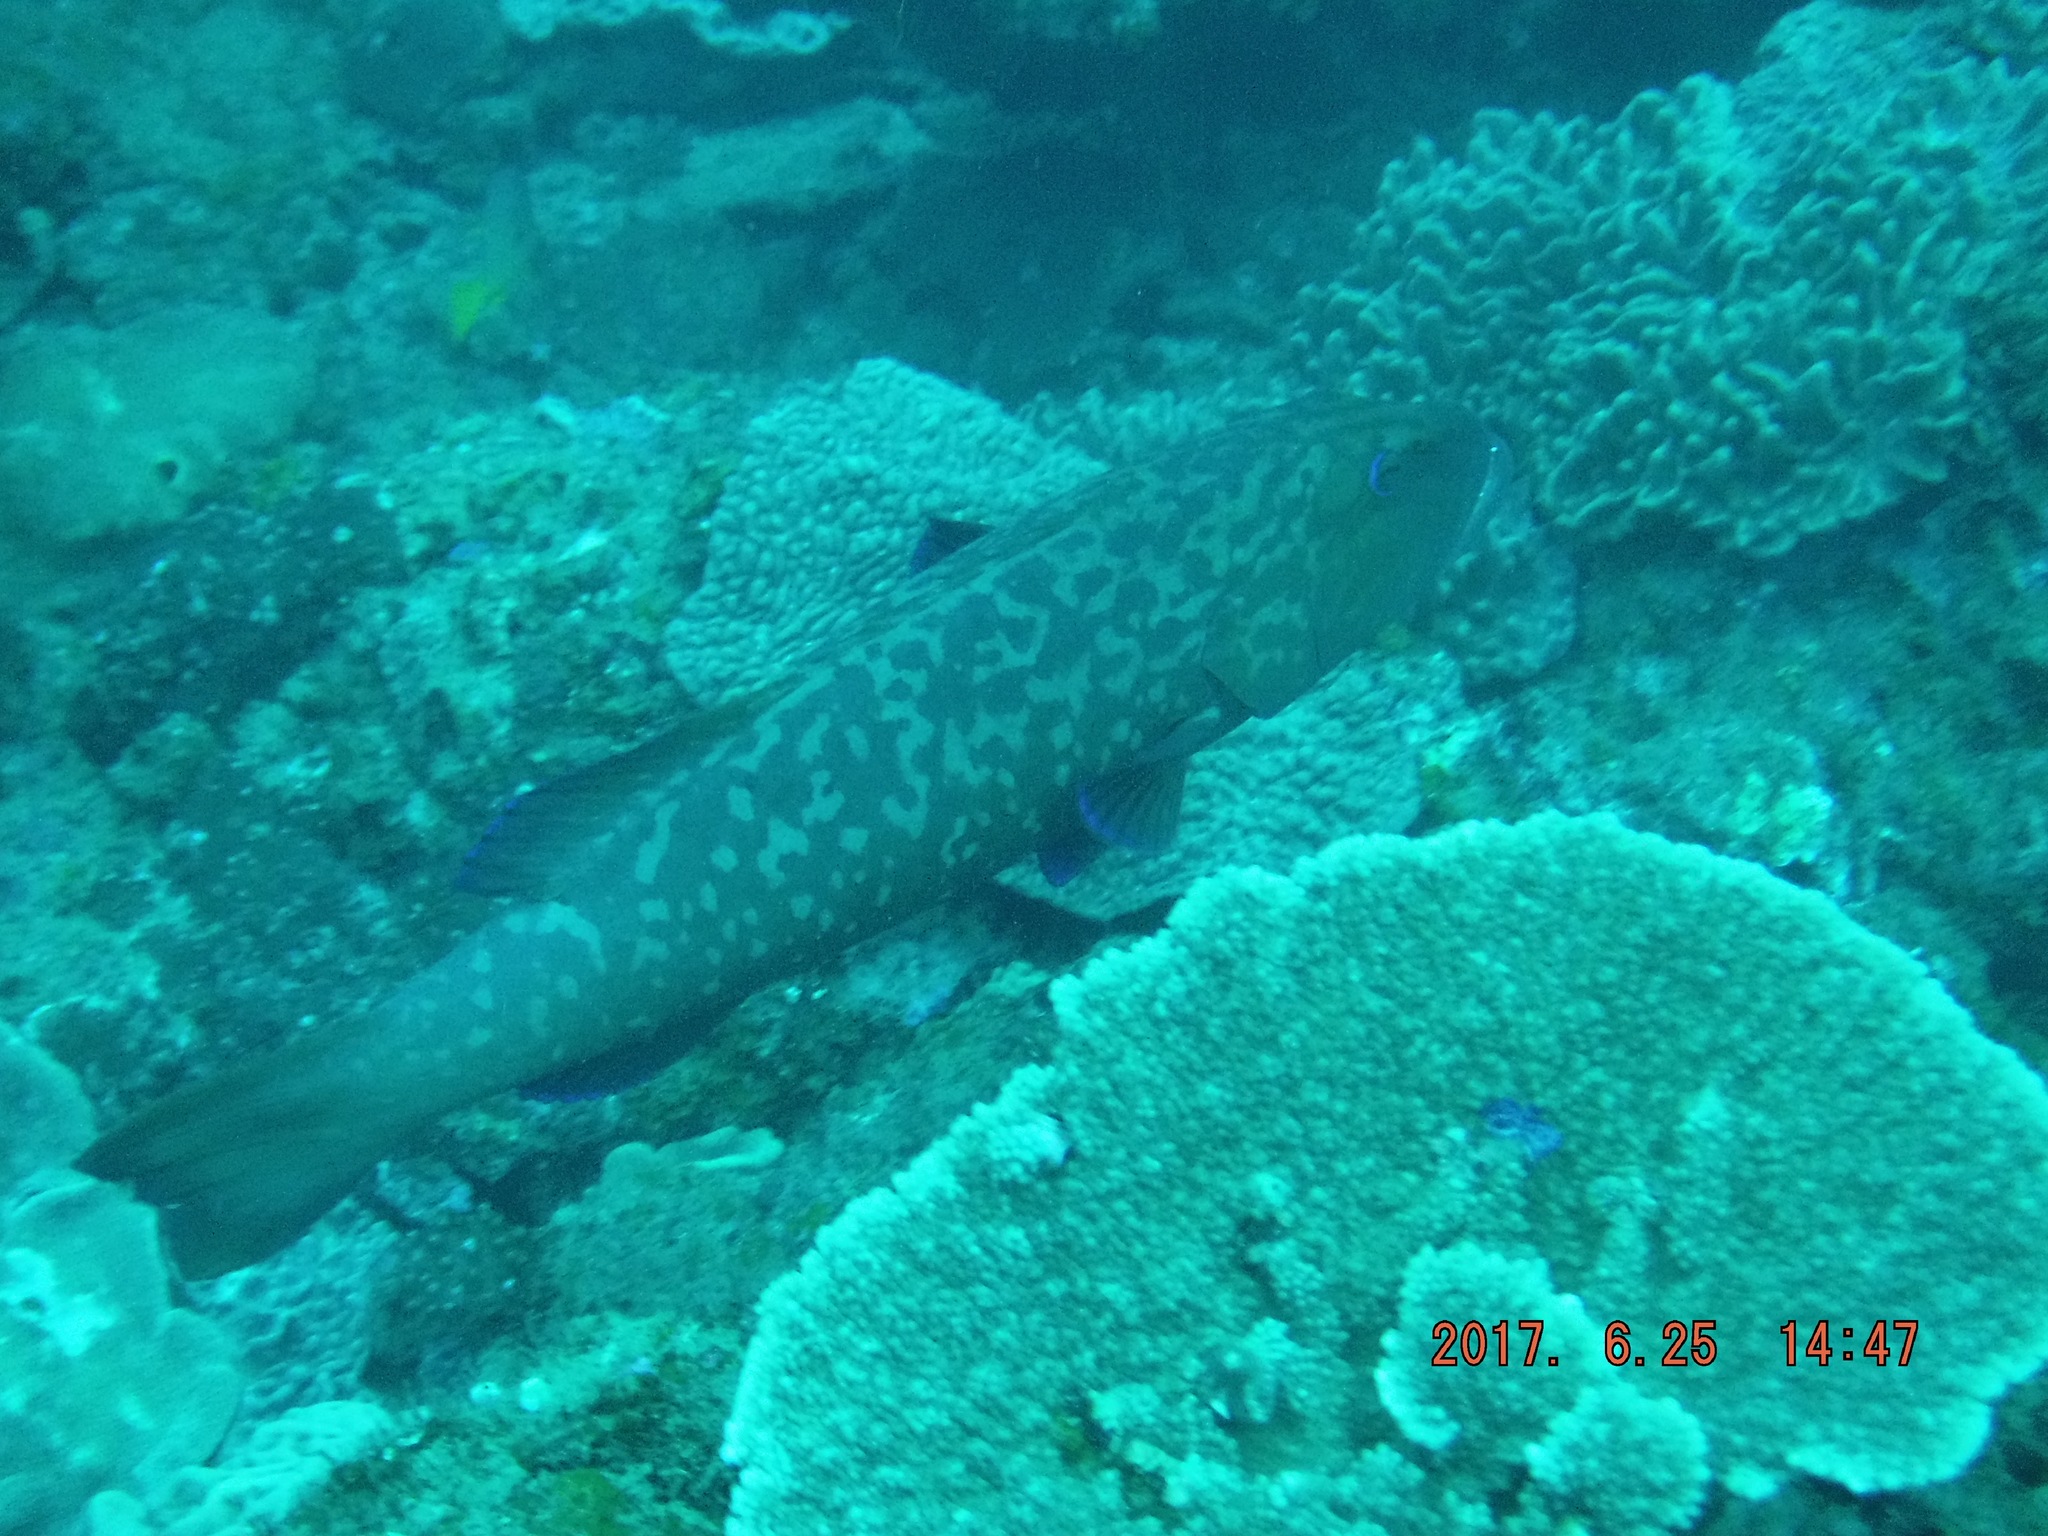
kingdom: Animalia
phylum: Chordata
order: Perciformes
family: Serranidae
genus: Plectropomus
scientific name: Plectropomus punctatus
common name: Marbled coralgrouper
